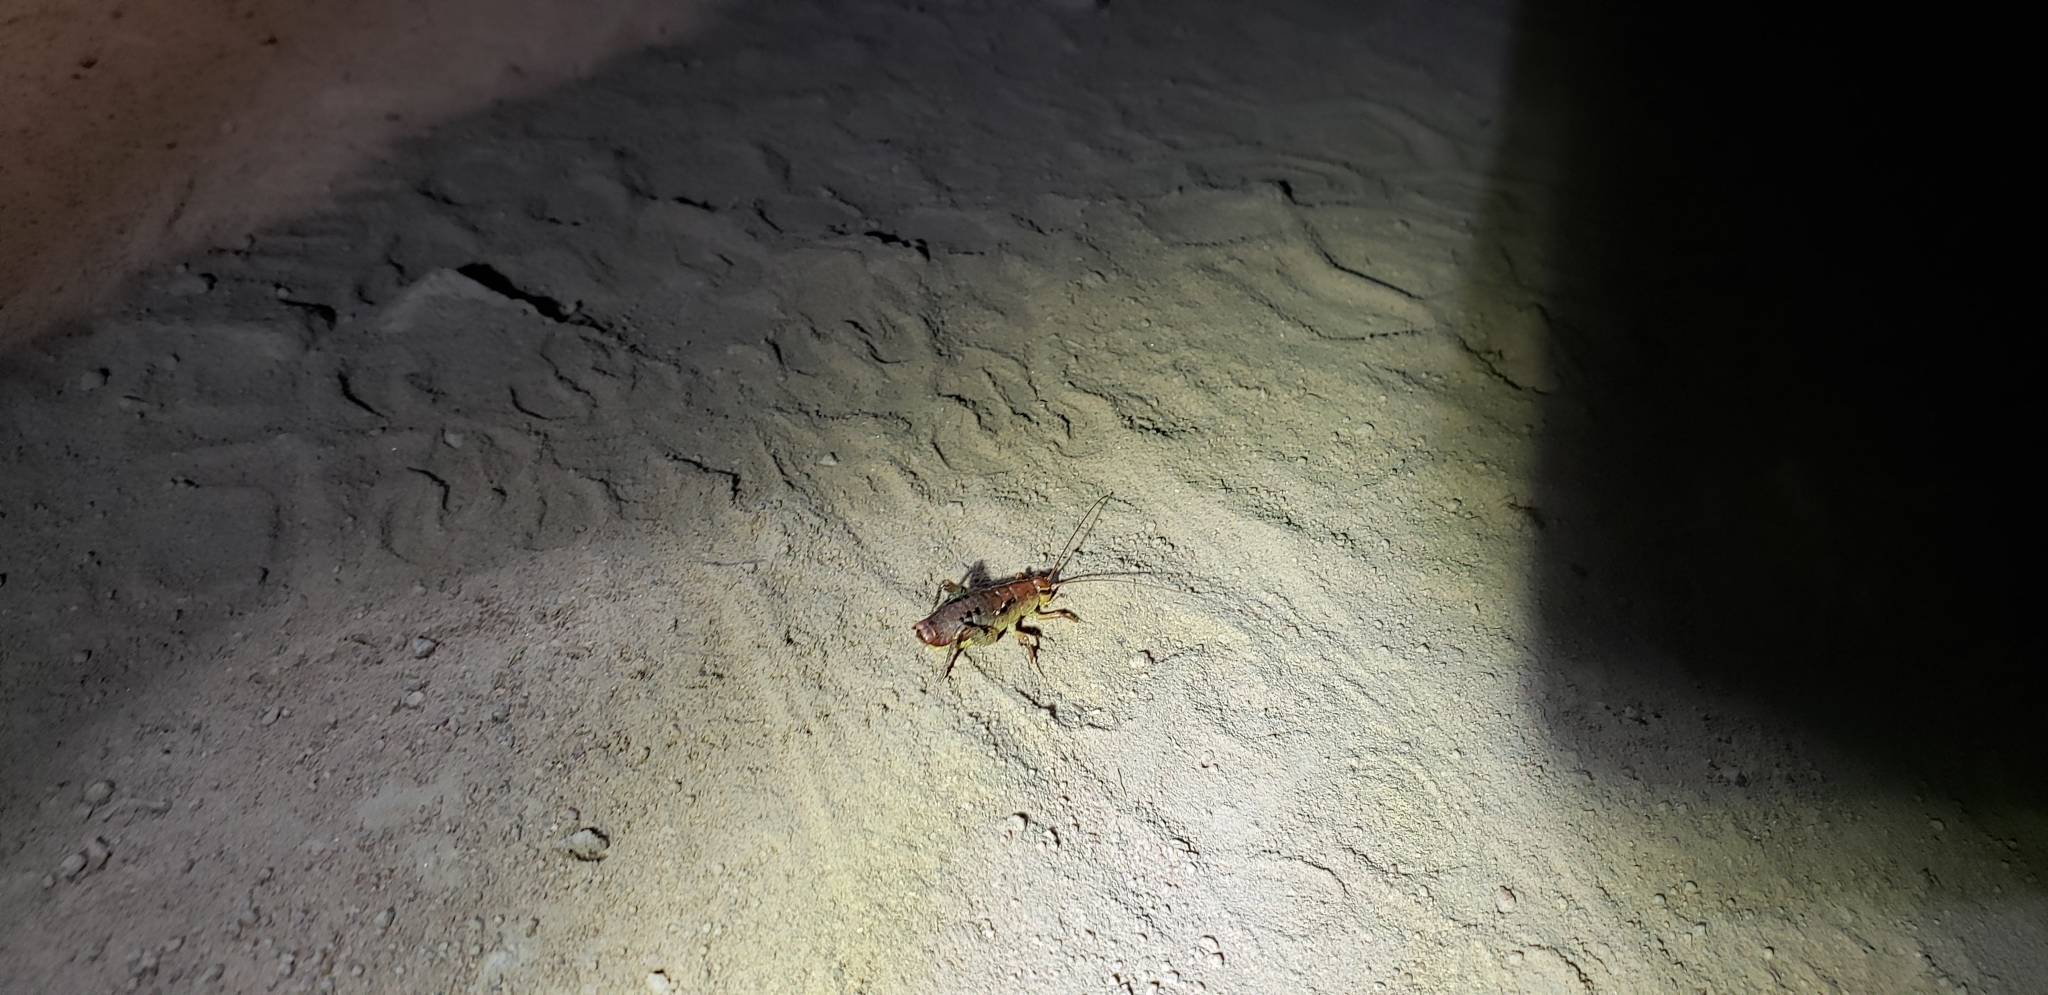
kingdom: Animalia
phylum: Arthropoda
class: Insecta
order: Orthoptera
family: Rhaphidophoridae
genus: Gammarotettix
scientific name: Gammarotettix genitalis
